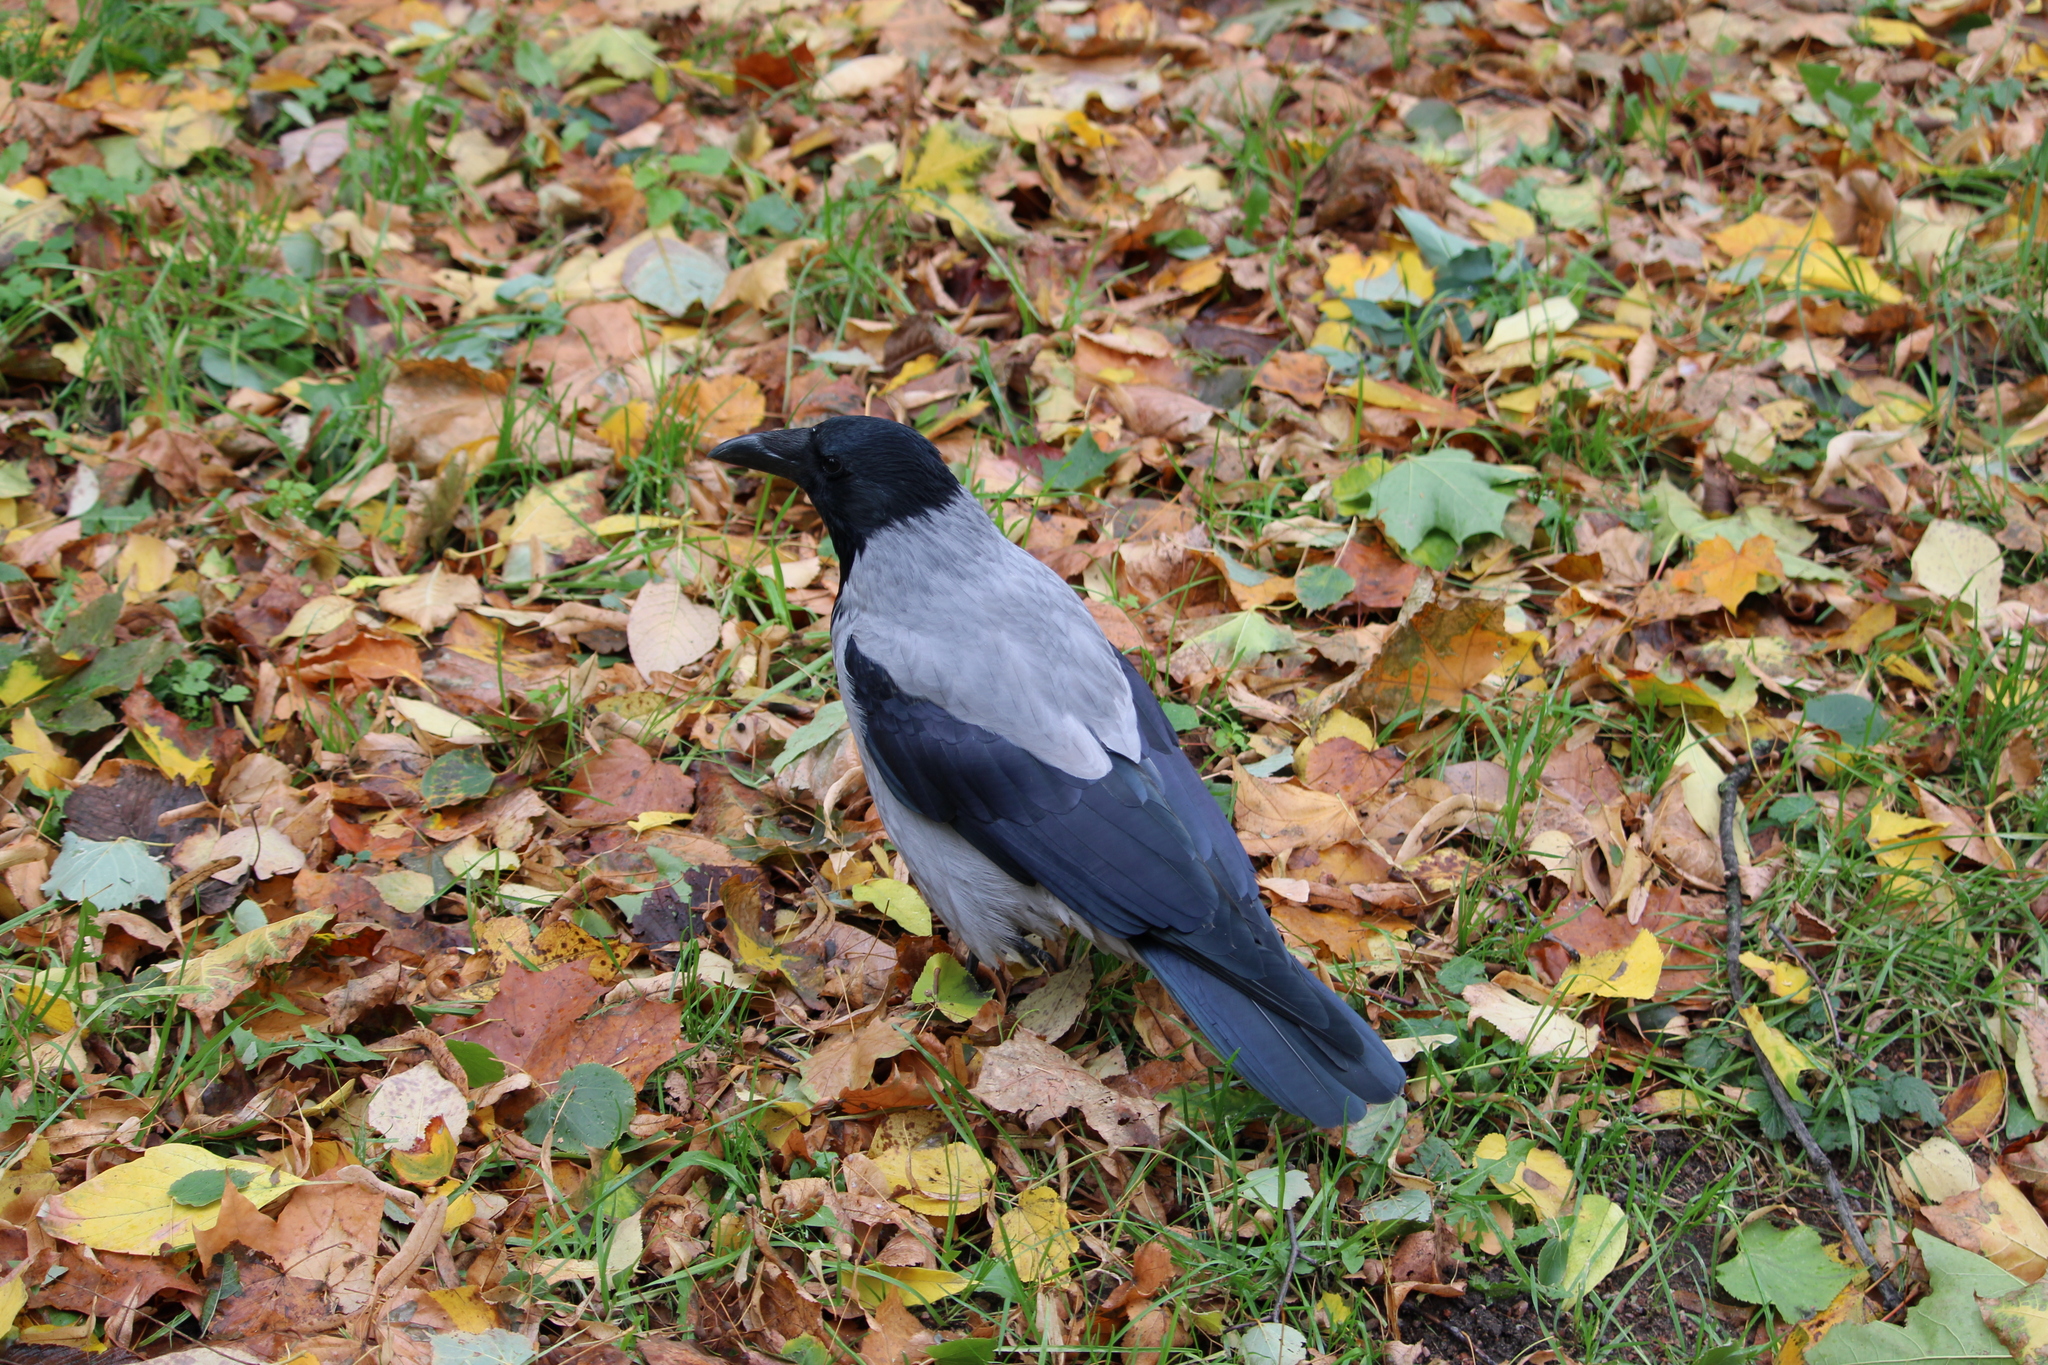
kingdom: Animalia
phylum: Chordata
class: Aves
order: Passeriformes
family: Corvidae
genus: Corvus
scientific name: Corvus cornix
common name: Hooded crow
